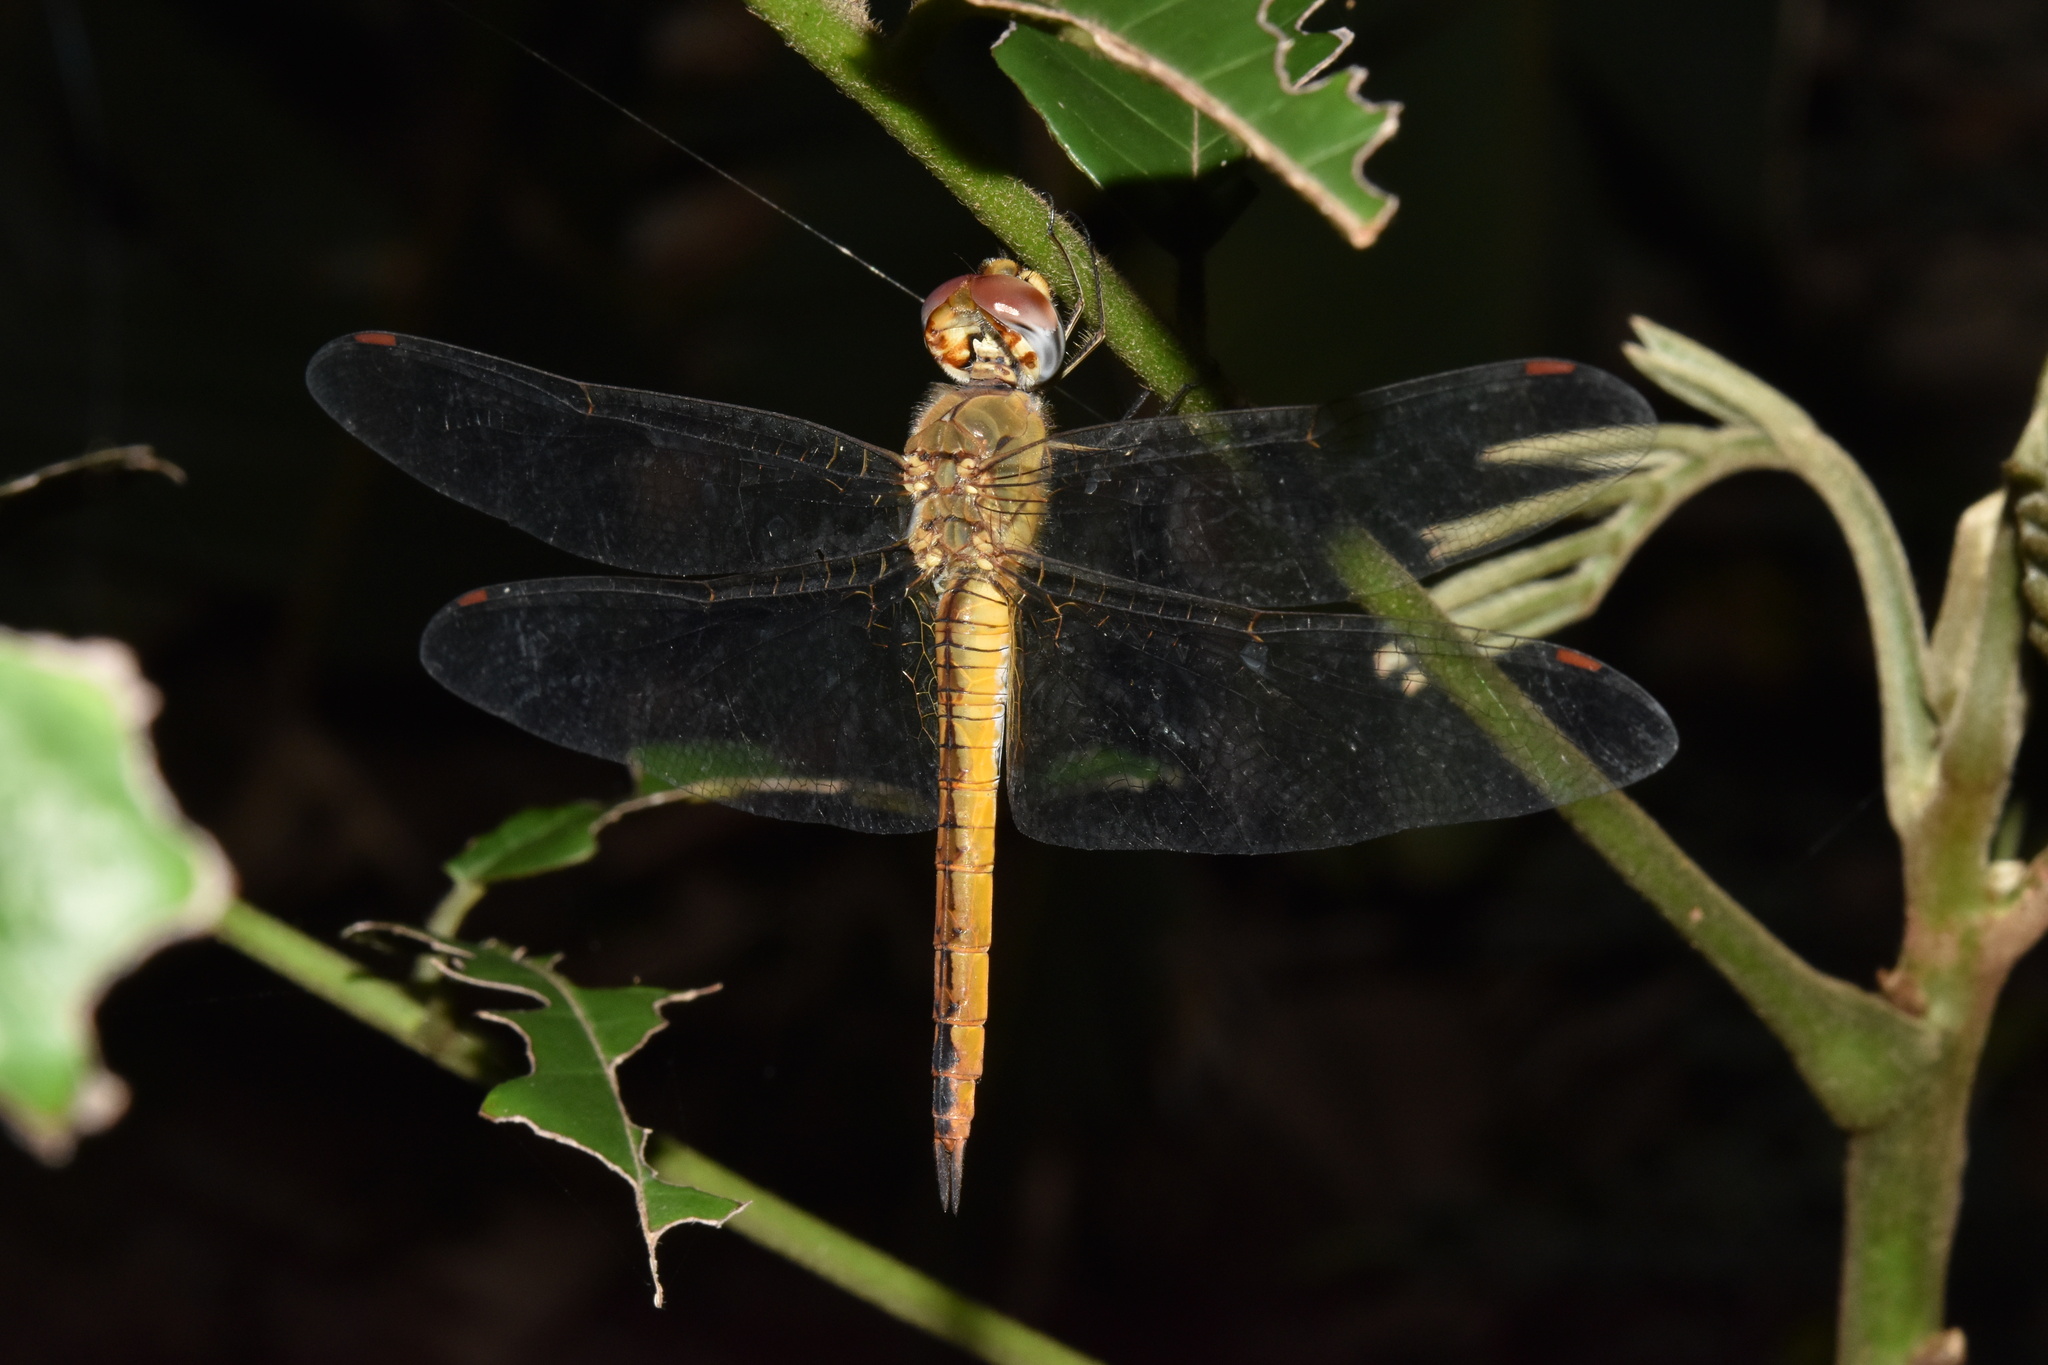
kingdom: Animalia
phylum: Arthropoda
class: Insecta
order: Odonata
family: Libellulidae
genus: Pantala
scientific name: Pantala flavescens
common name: Wandering glider
